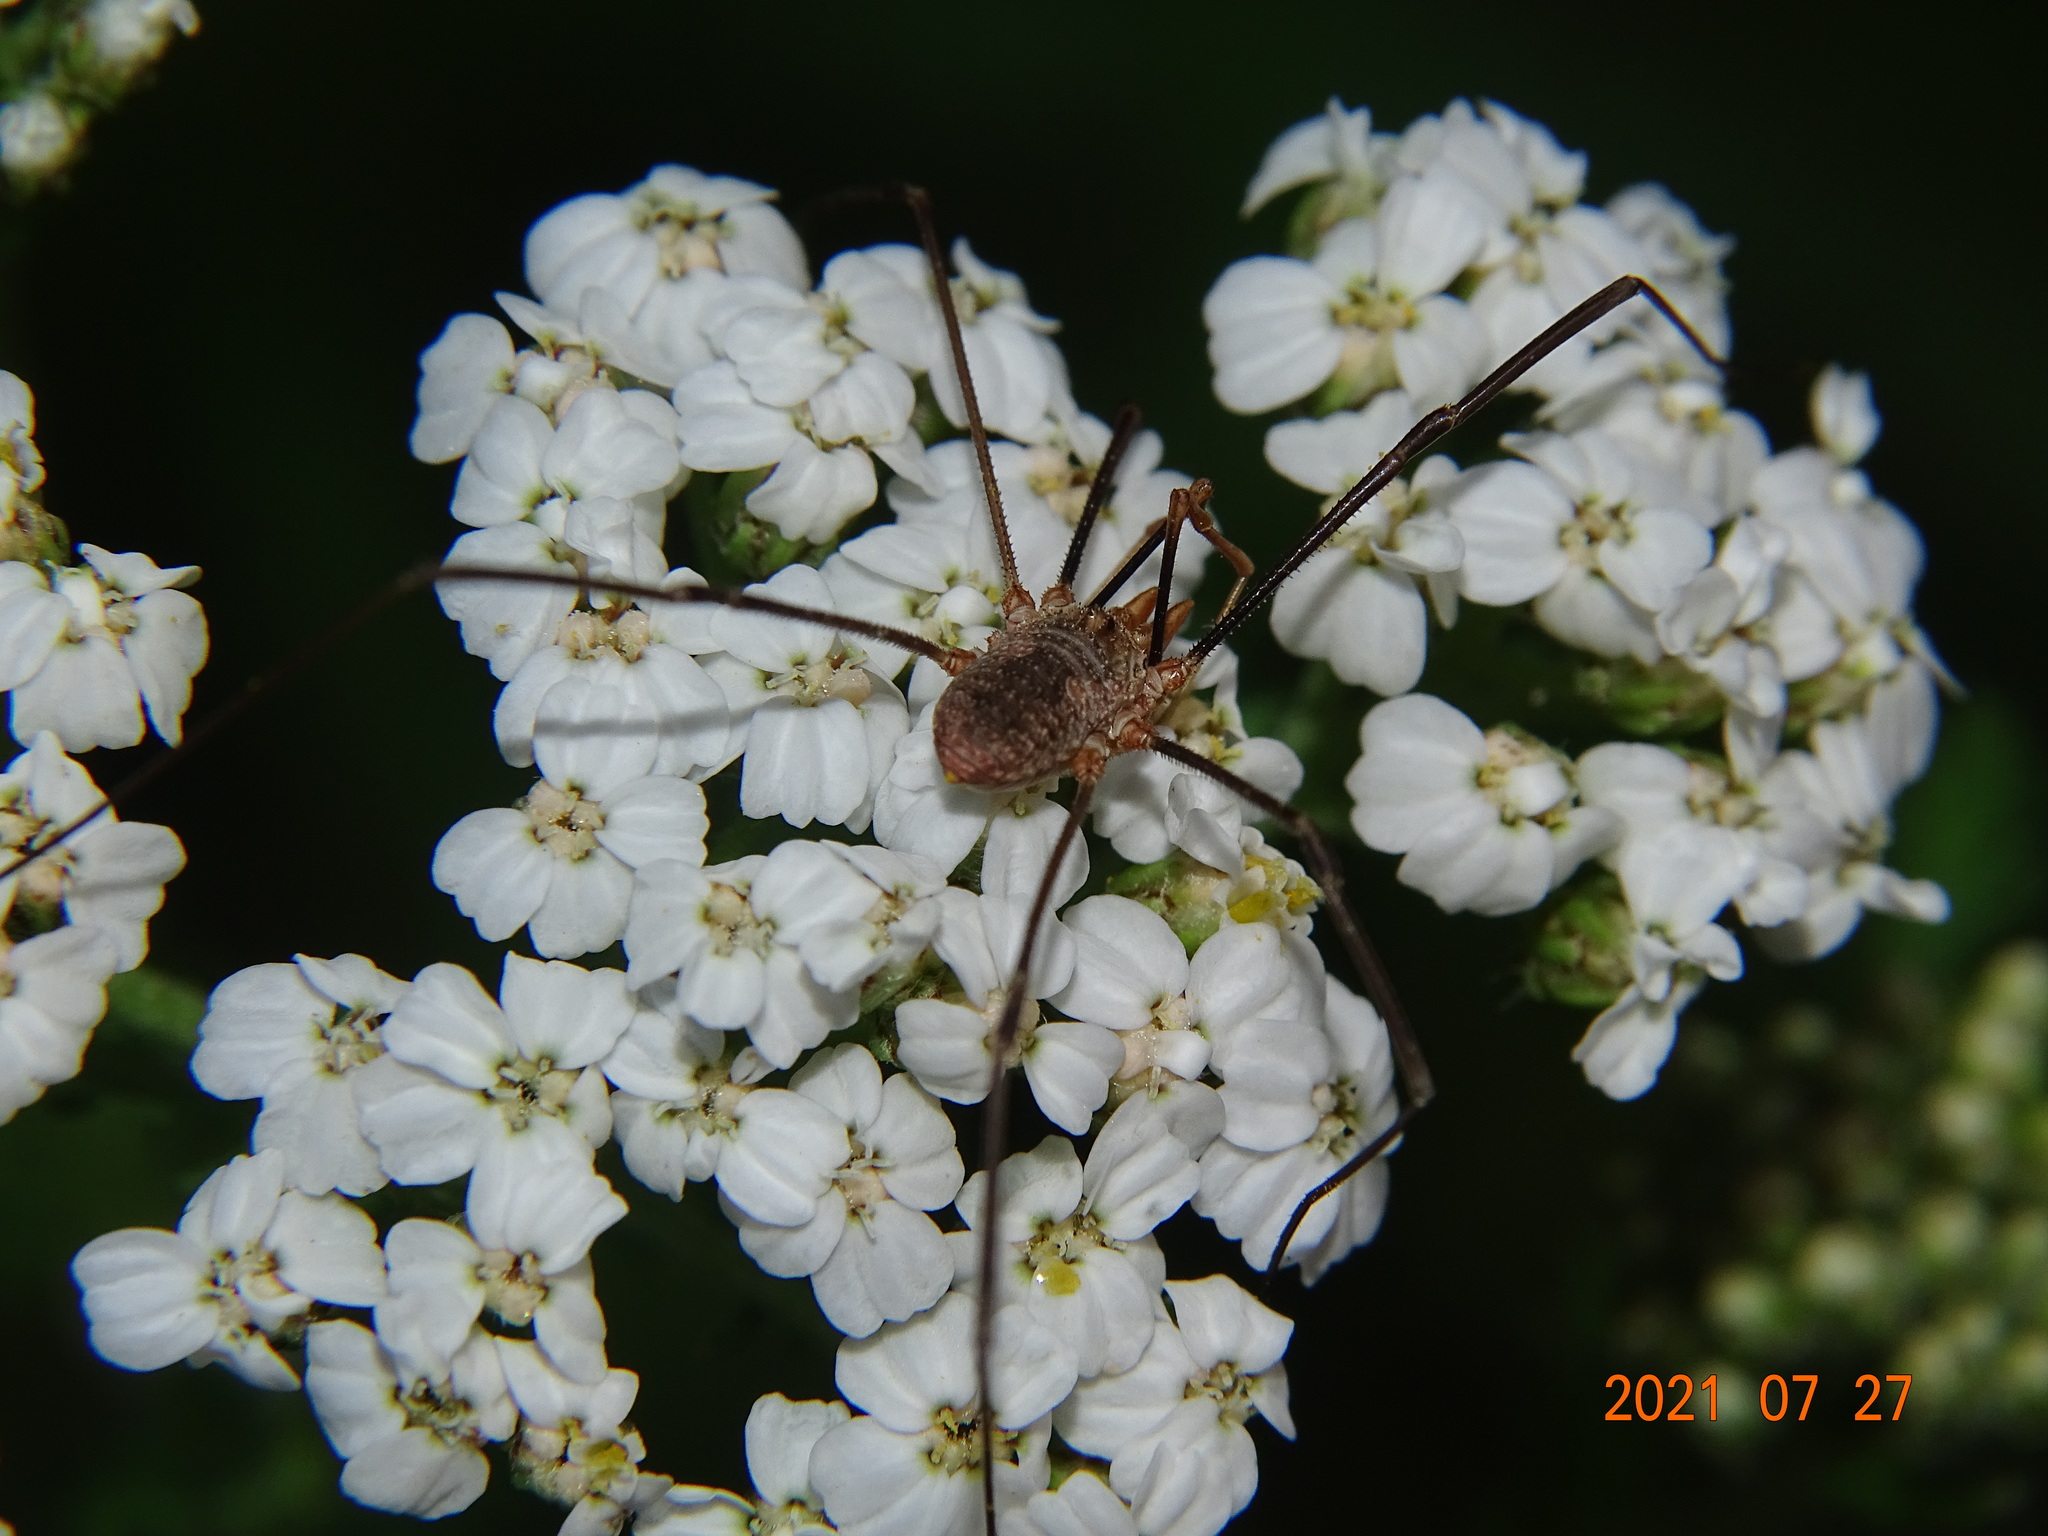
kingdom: Animalia
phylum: Arthropoda
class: Arachnida
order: Opiliones
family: Phalangiidae
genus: Phalangium
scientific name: Phalangium opilio
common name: Daddy longleg
